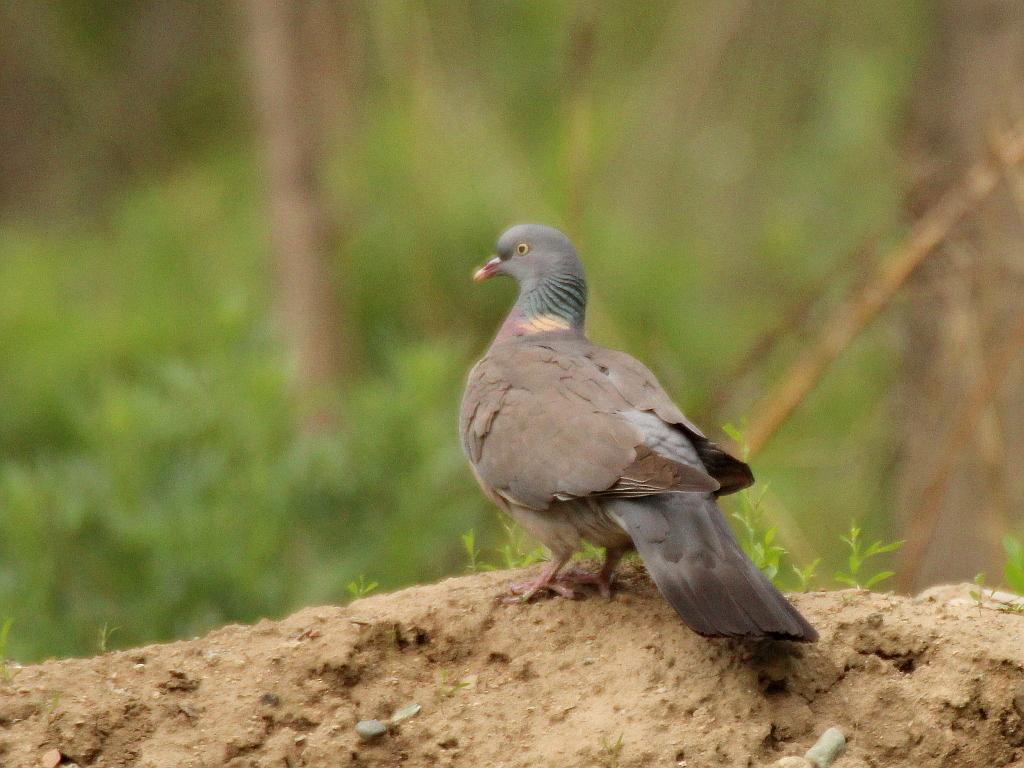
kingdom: Animalia
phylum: Chordata
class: Aves
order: Columbiformes
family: Columbidae
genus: Columba
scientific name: Columba palumbus
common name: Common wood pigeon
